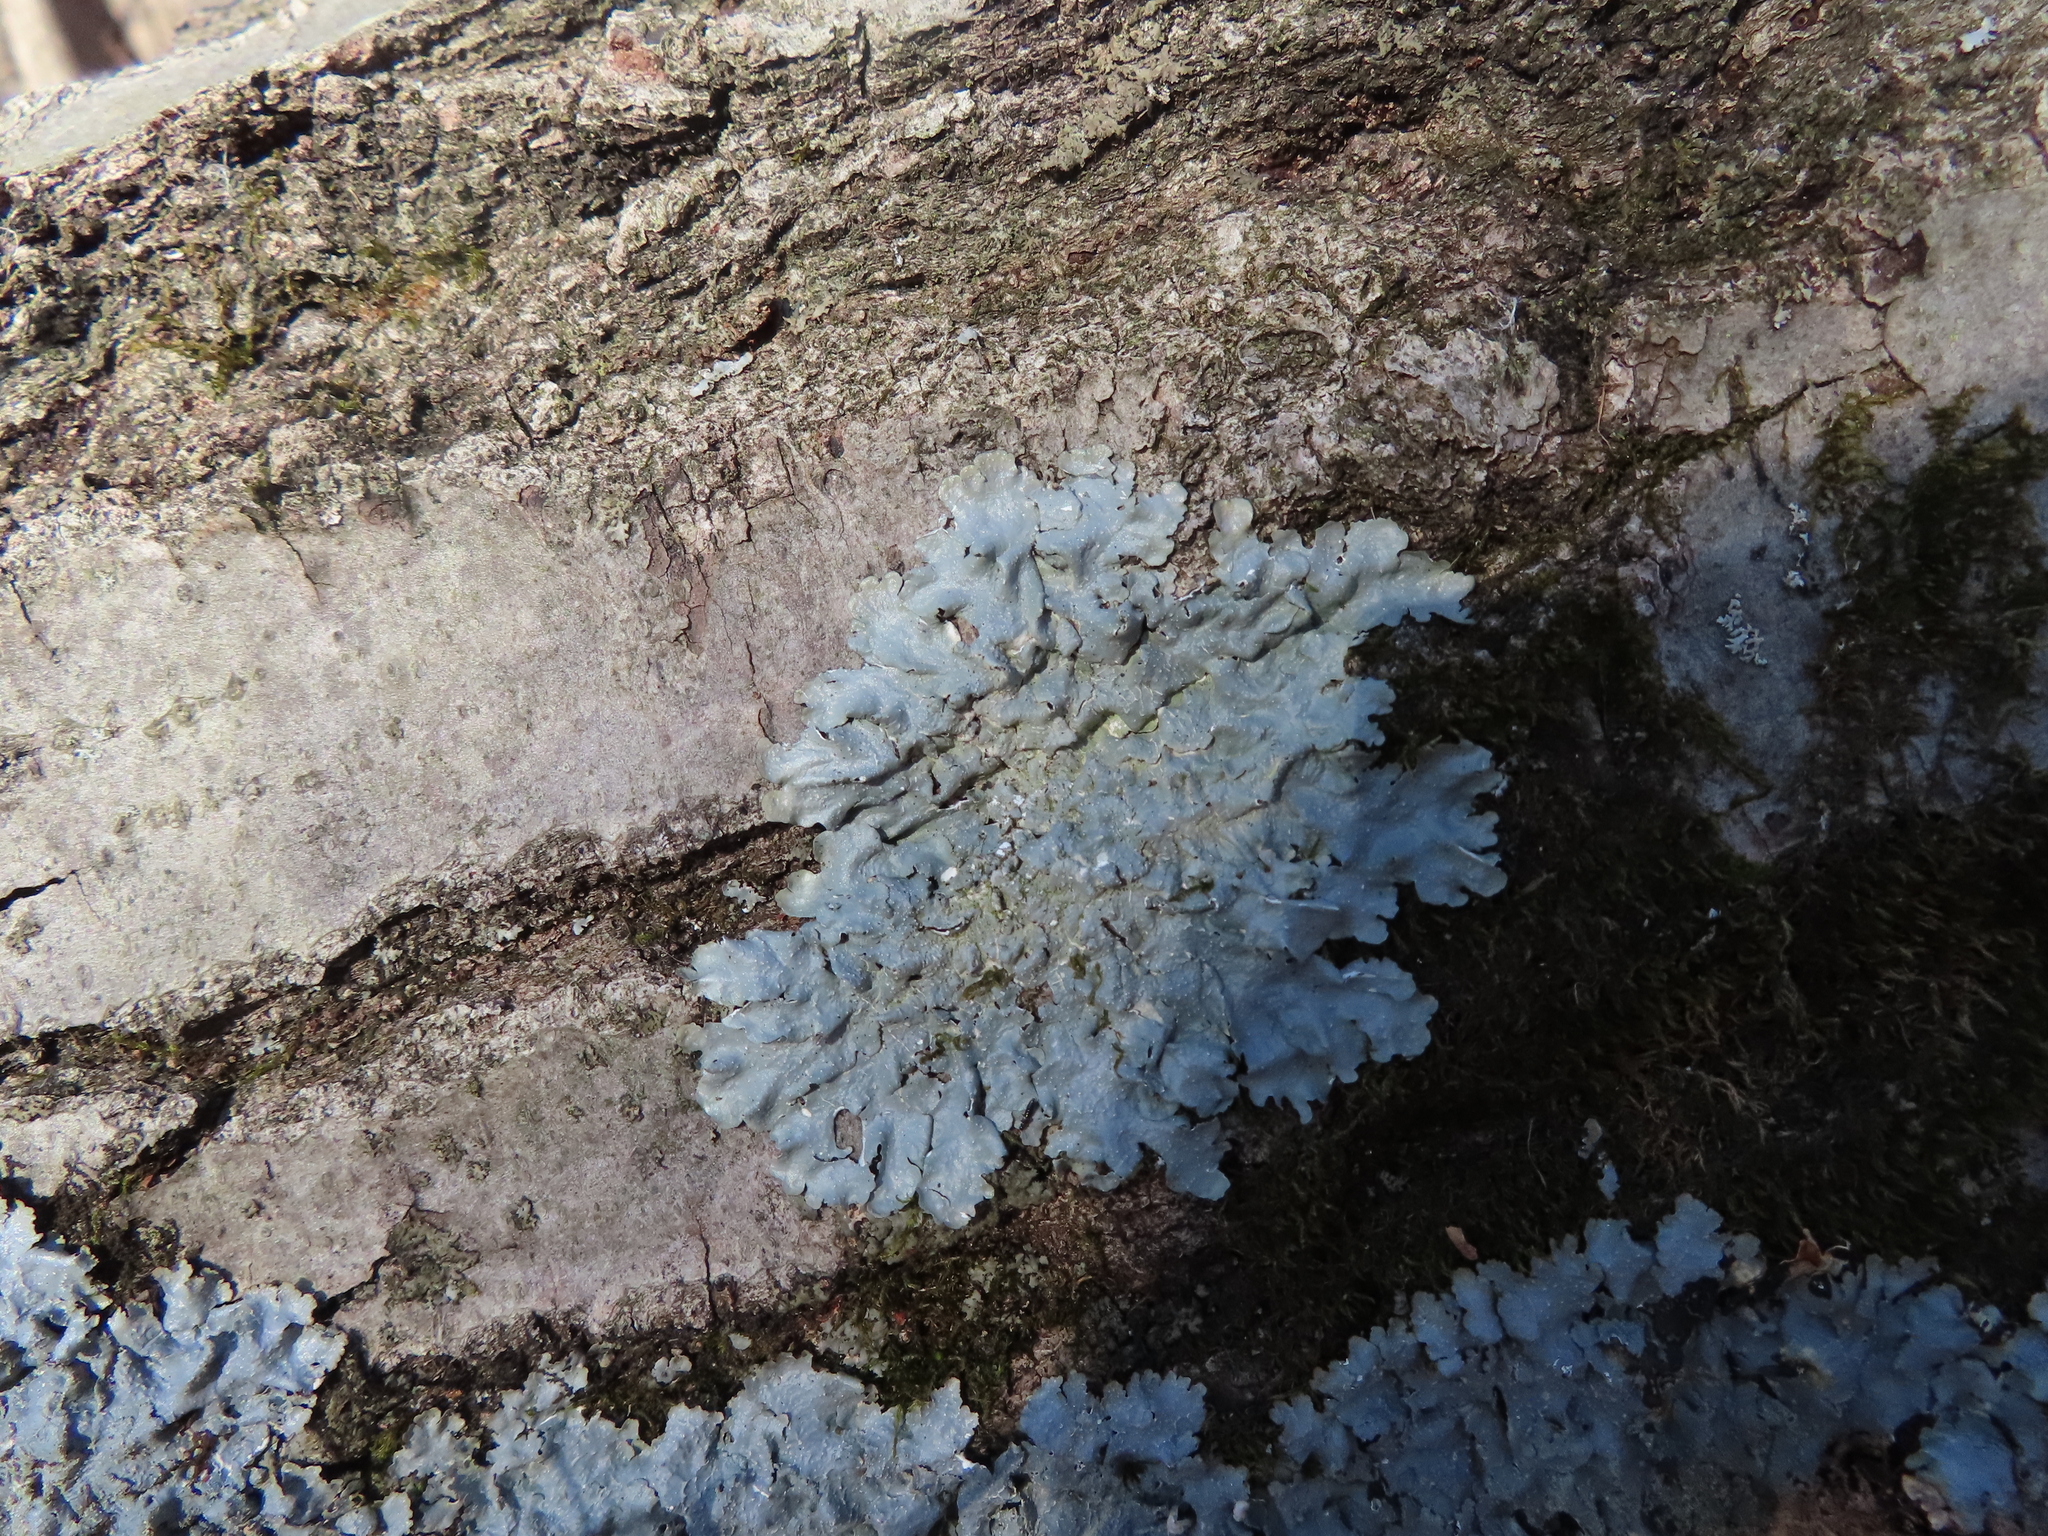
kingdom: Fungi
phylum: Ascomycota
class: Lecanoromycetes
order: Lecanorales
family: Parmeliaceae
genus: Punctelia
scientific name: Punctelia rudecta
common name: Rough speckled shield lichen
